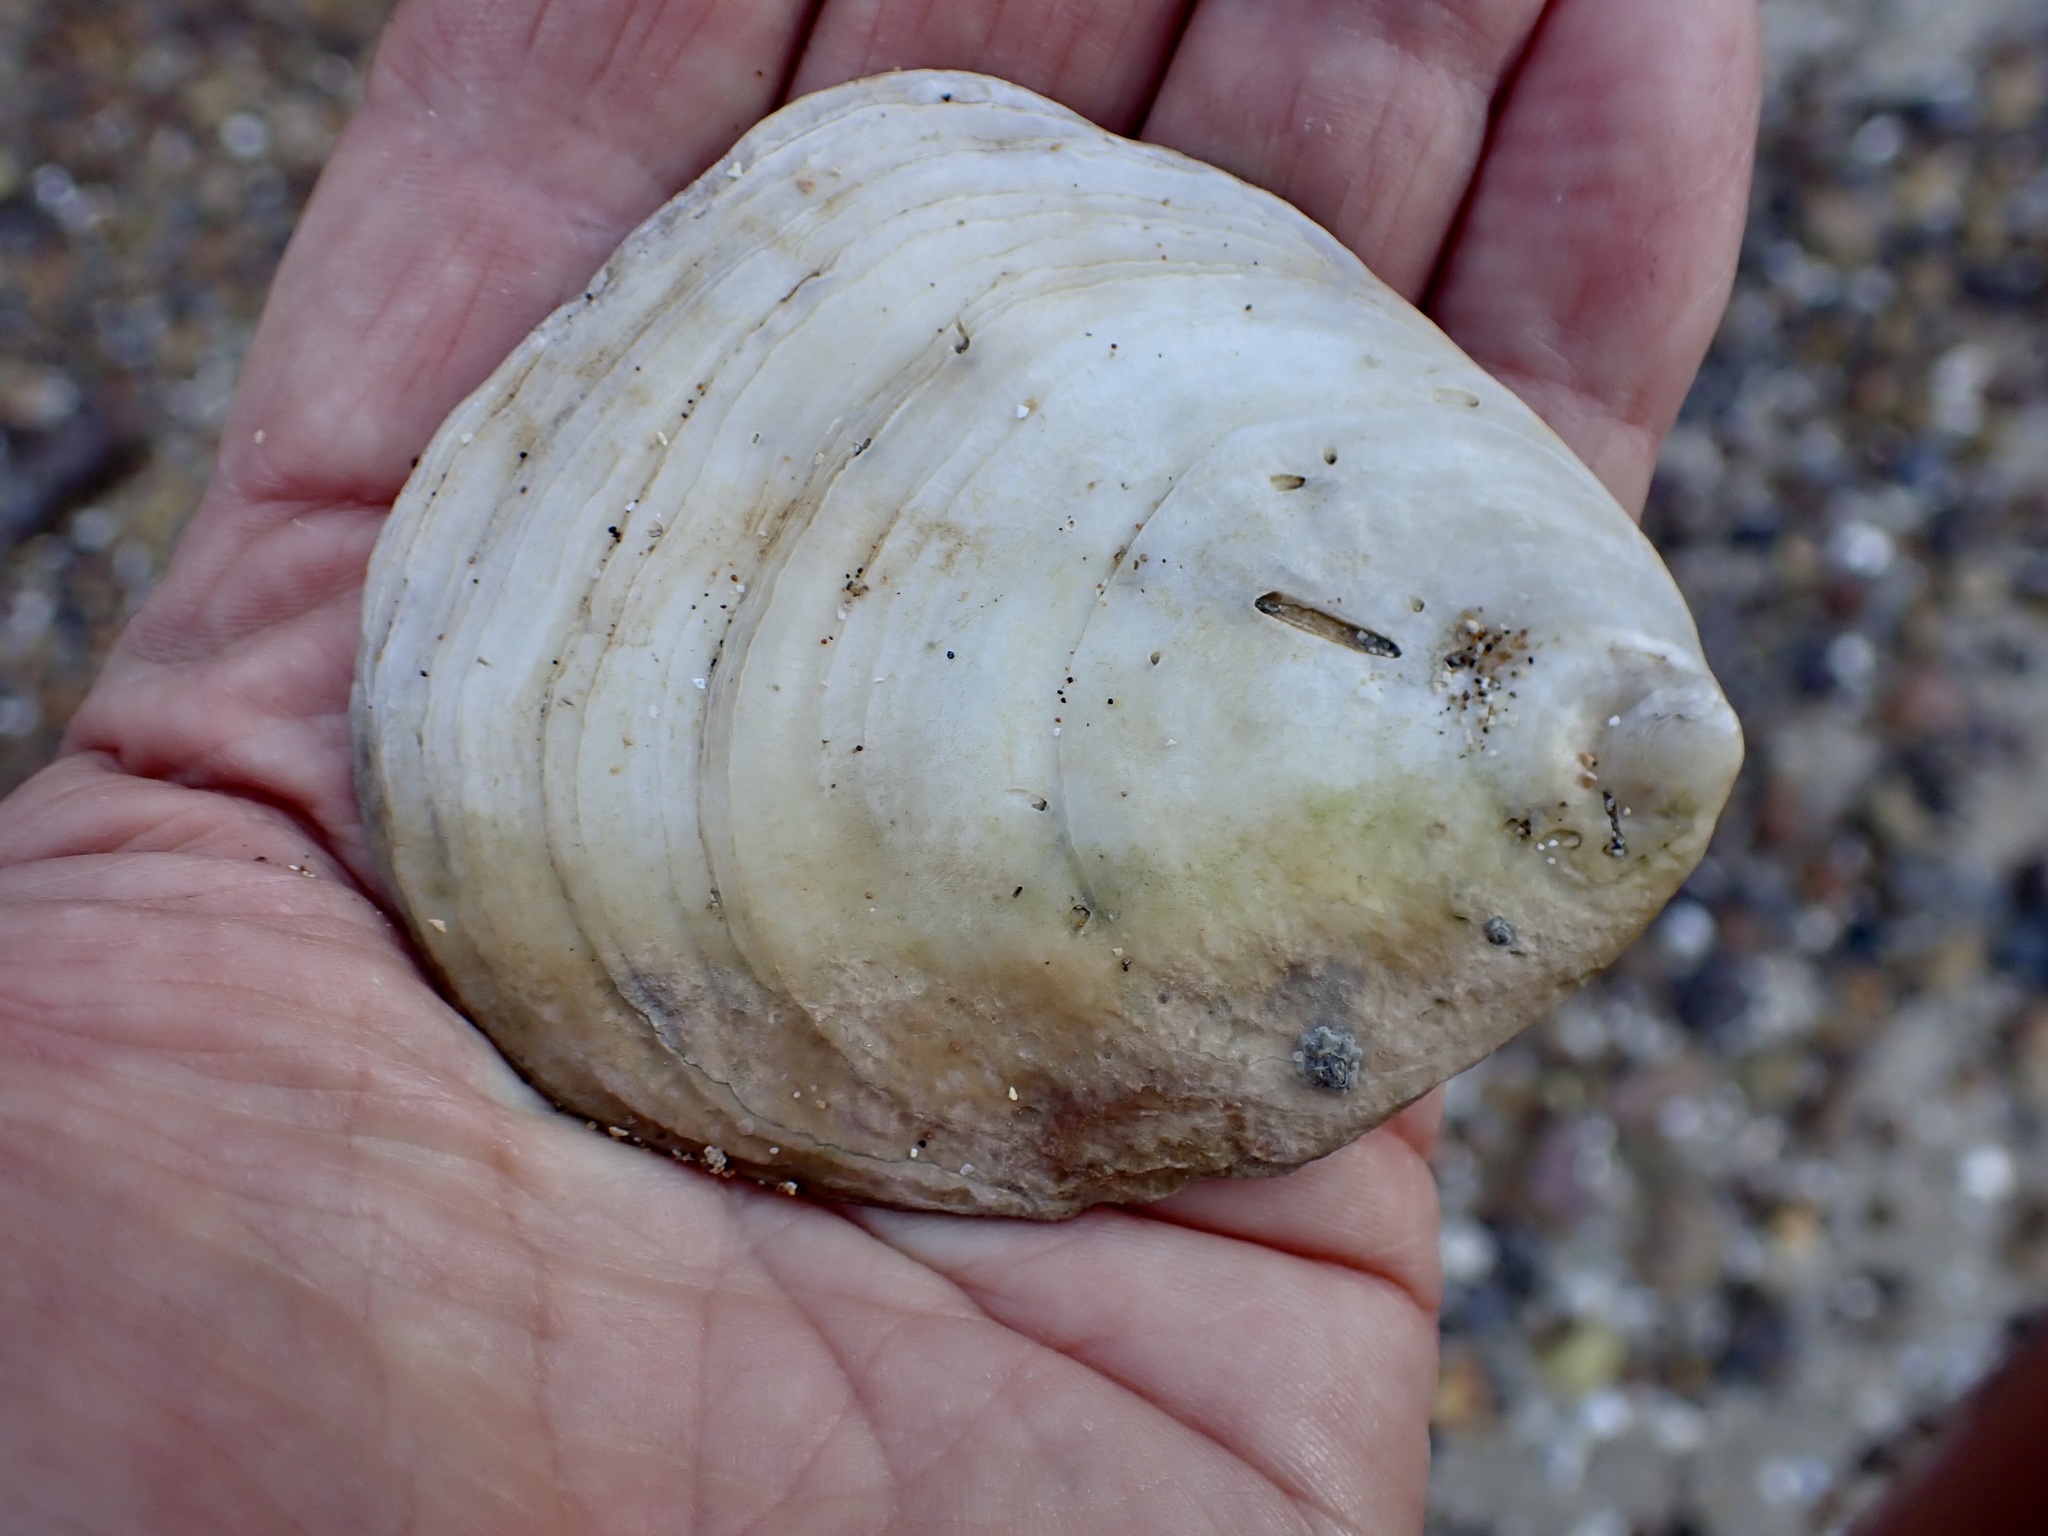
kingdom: Animalia
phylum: Mollusca
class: Bivalvia
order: Ostreida
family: Ostreidae
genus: Ostrea
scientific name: Ostrea chilensis
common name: Chilean oyster
